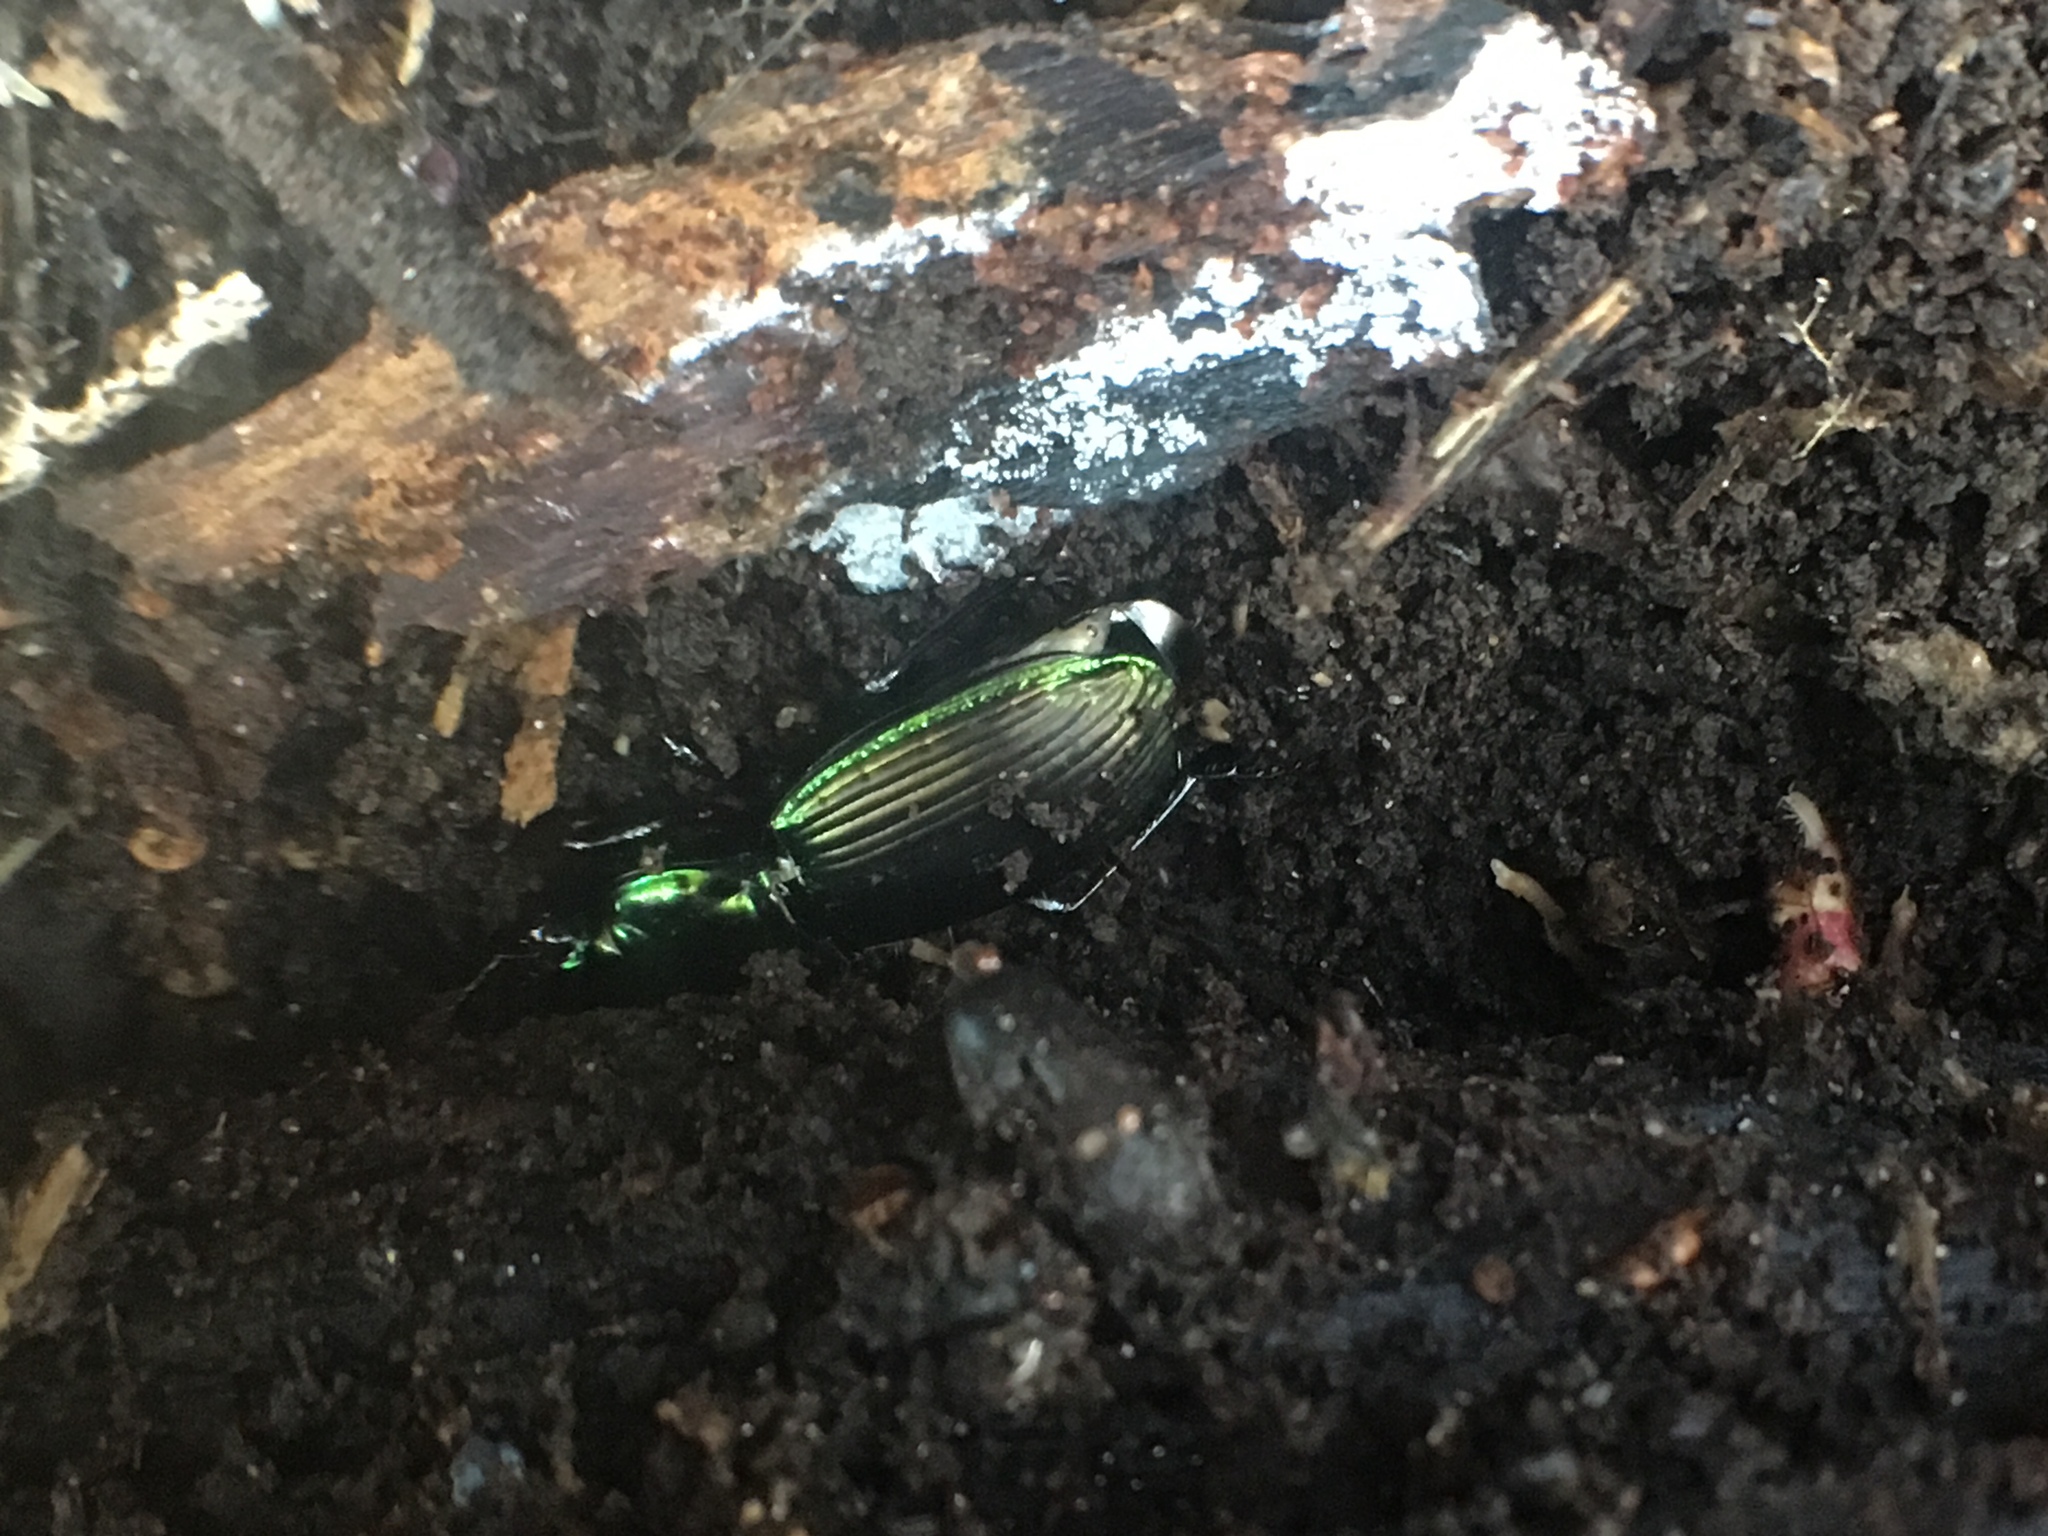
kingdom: Animalia
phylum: Arthropoda
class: Insecta
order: Coleoptera
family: Carabidae
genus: Megadromus
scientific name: Megadromus antarcticus
